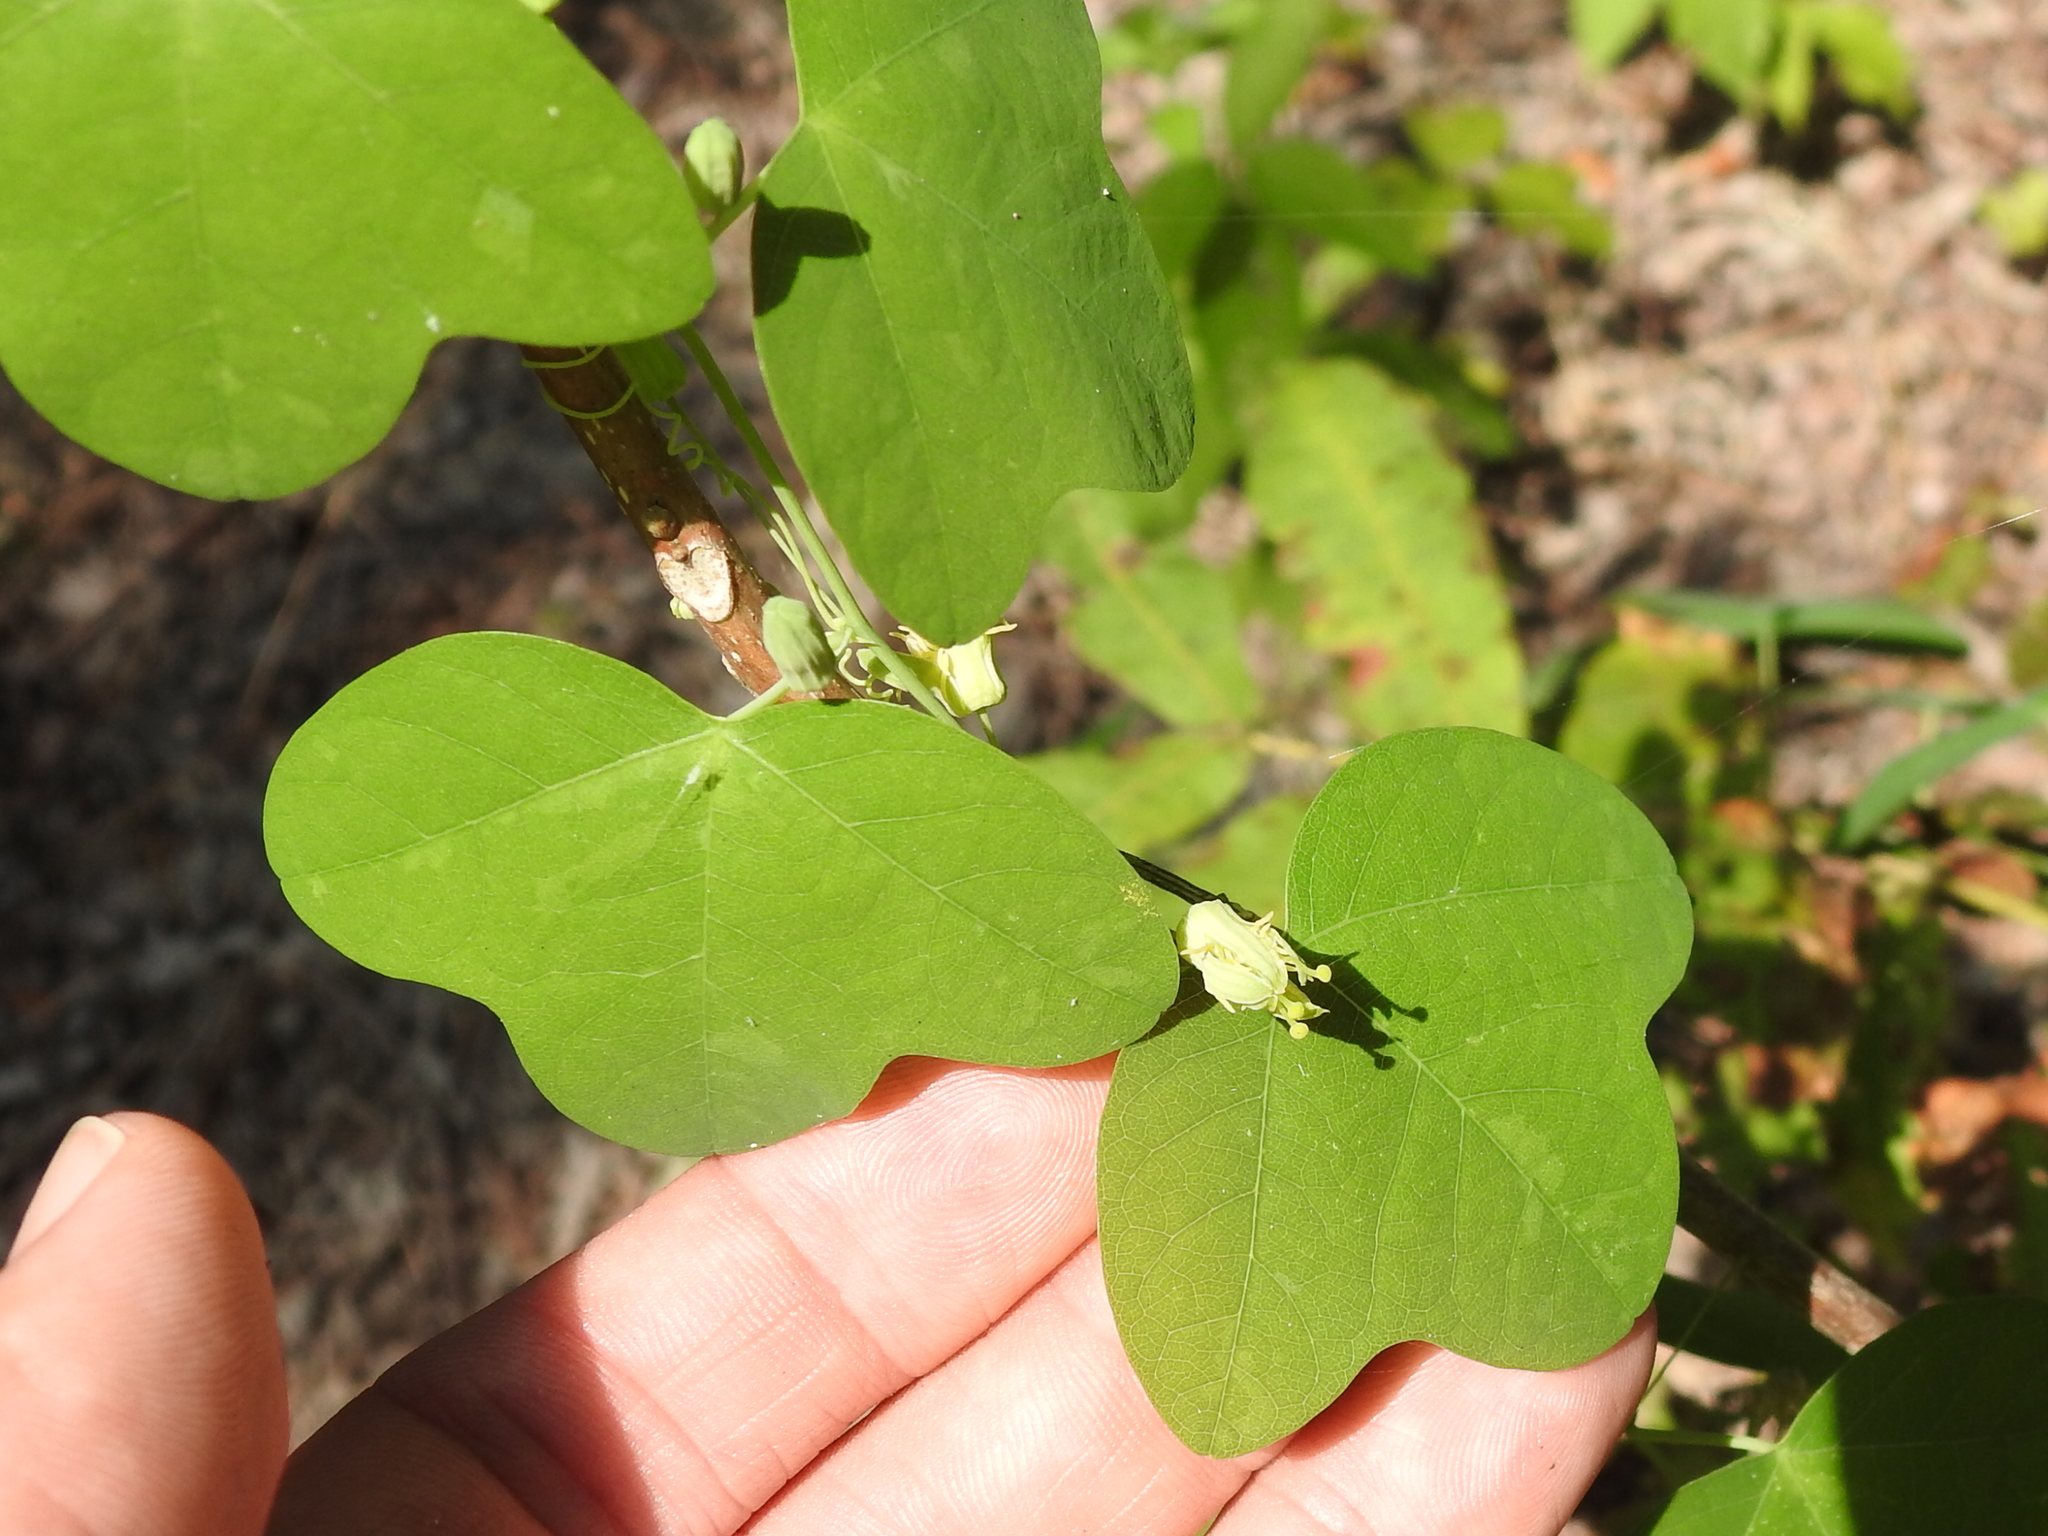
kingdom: Plantae
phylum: Tracheophyta
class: Magnoliopsida
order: Malpighiales
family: Passifloraceae
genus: Passiflora
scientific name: Passiflora lutea
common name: Yellow passionflower
